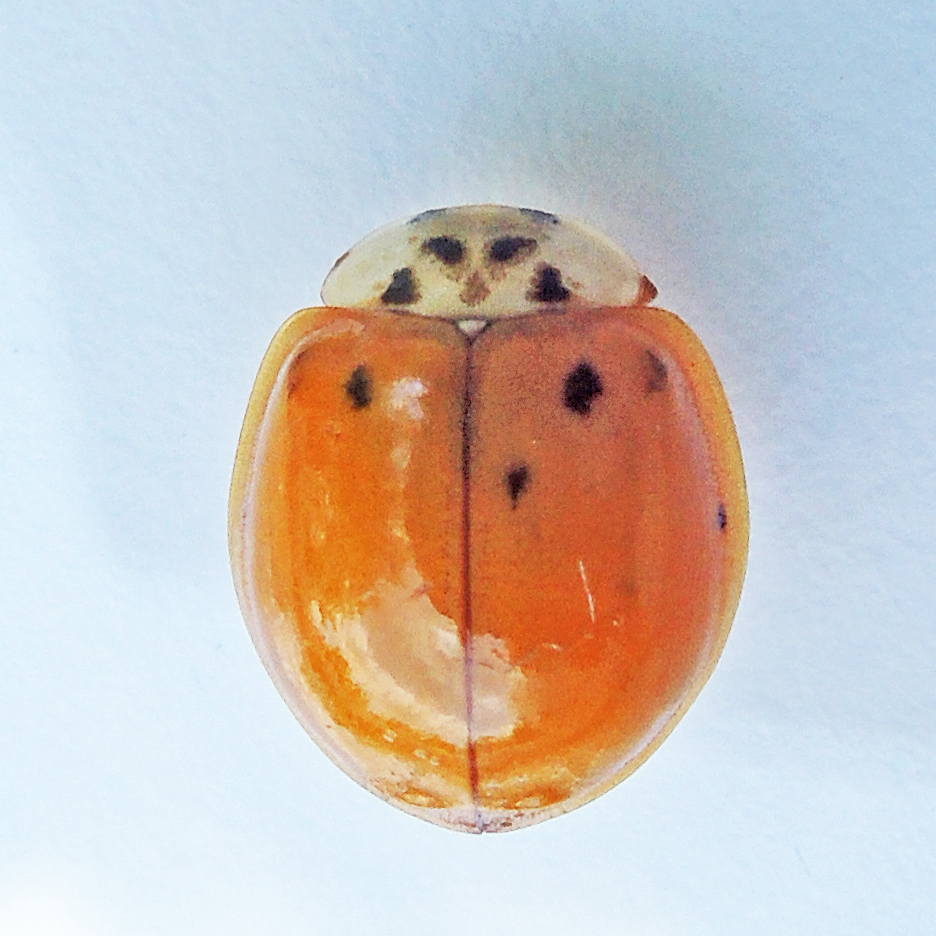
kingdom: Animalia
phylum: Arthropoda
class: Insecta
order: Coleoptera
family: Coccinellidae
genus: Harmonia
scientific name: Harmonia axyridis
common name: Harlequin ladybird
